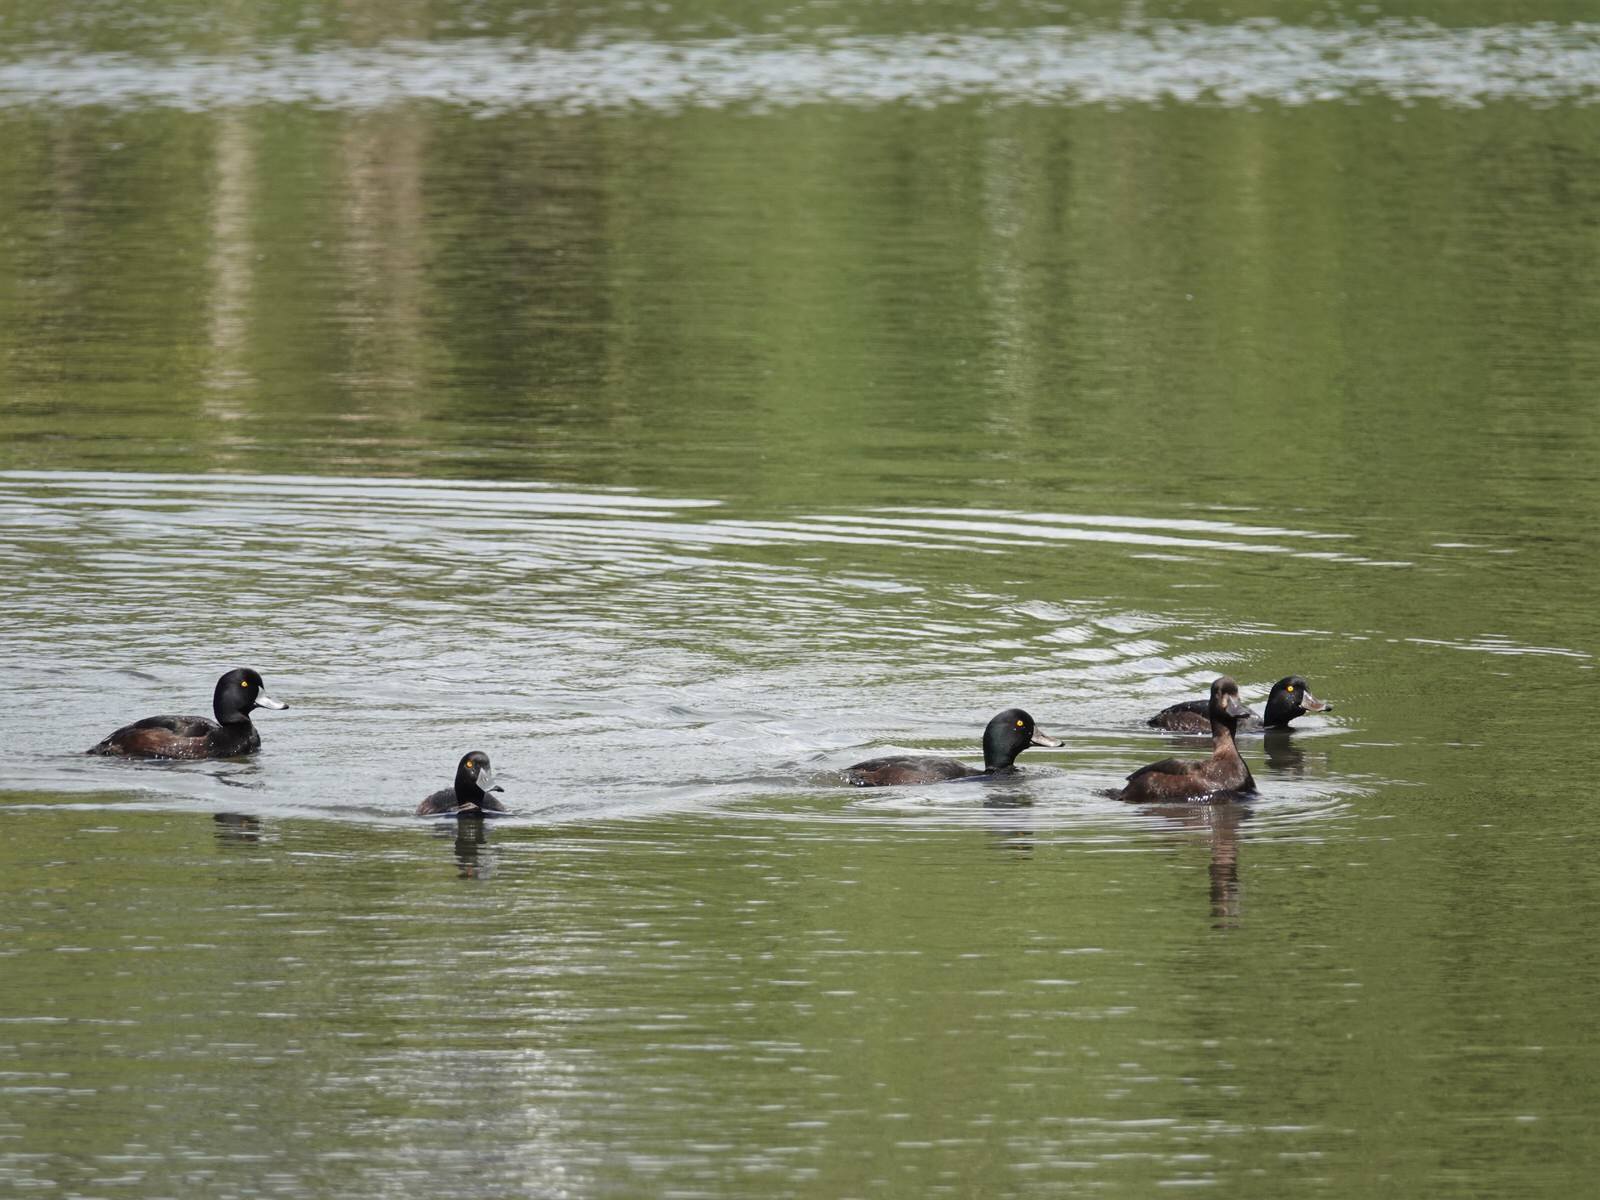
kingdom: Animalia
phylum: Chordata
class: Aves
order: Anseriformes
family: Anatidae
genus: Aythya
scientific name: Aythya novaeseelandiae
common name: New zealand scaup
